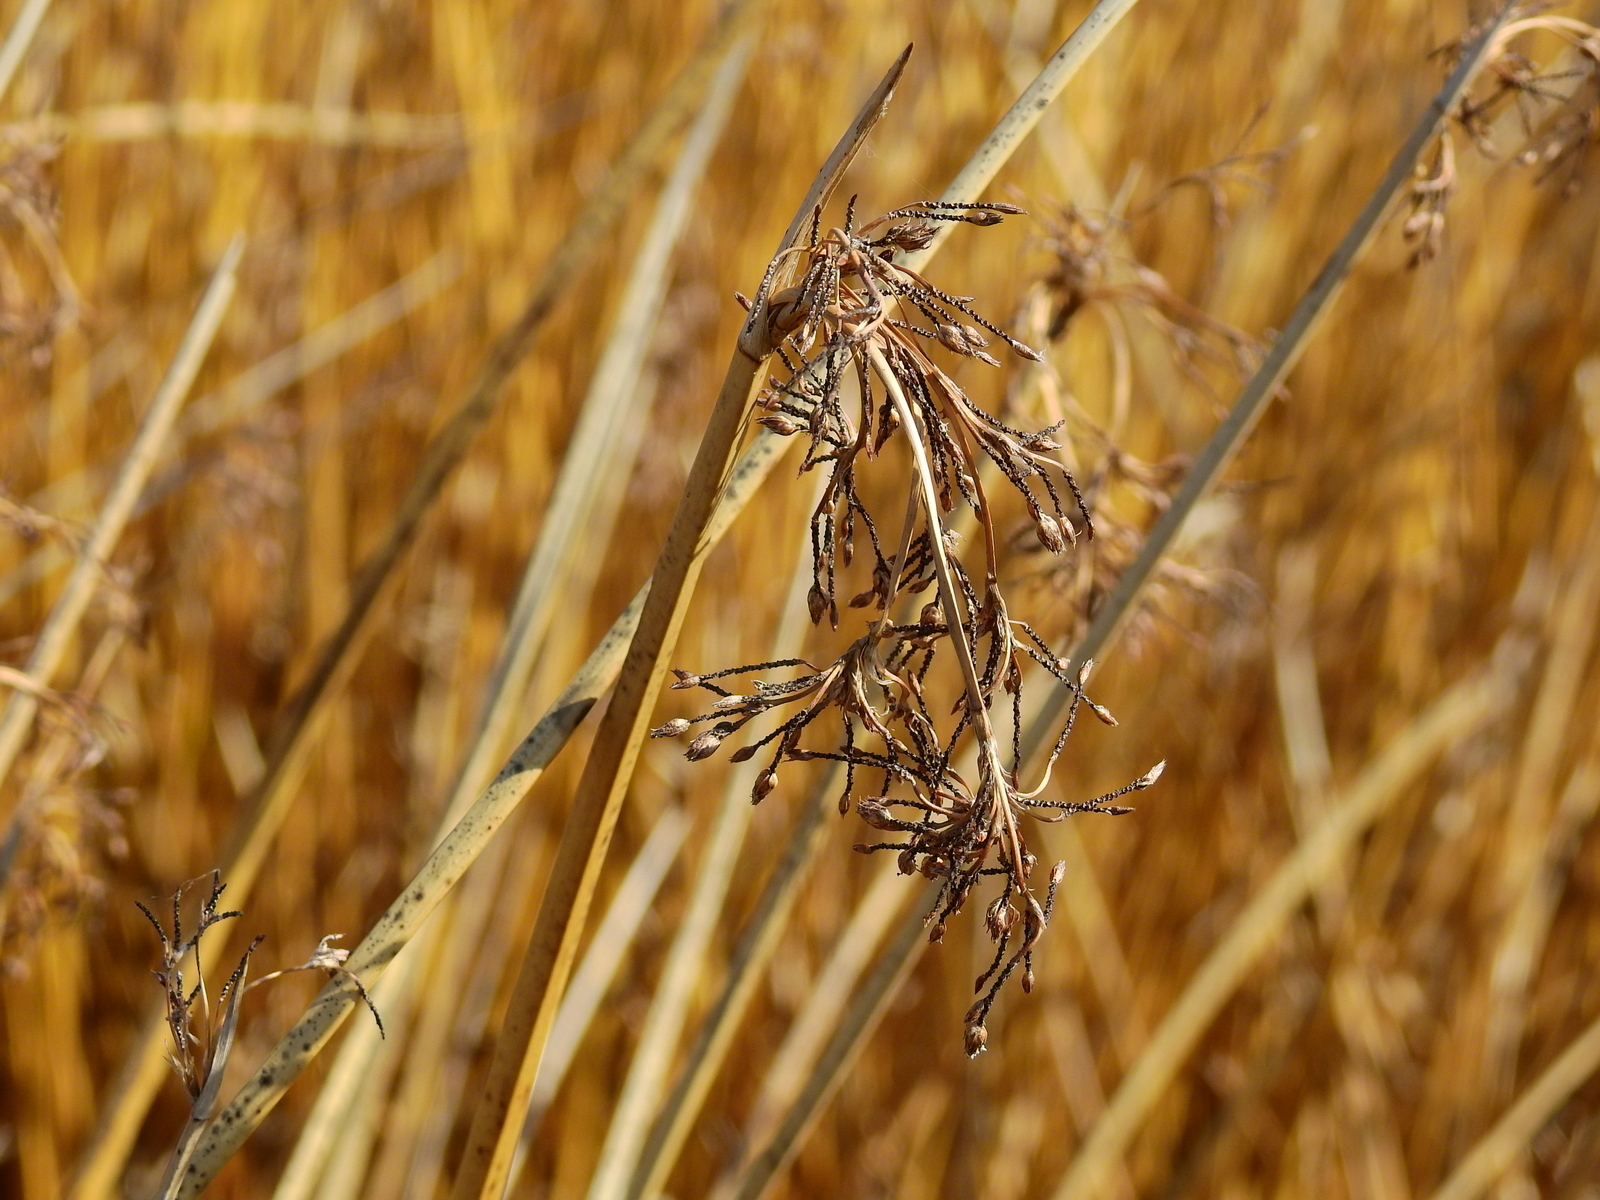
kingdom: Plantae
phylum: Tracheophyta
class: Liliopsida
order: Poales
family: Cyperaceae
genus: Schoenoplectus
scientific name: Schoenoplectus californicus
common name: California bulrush
